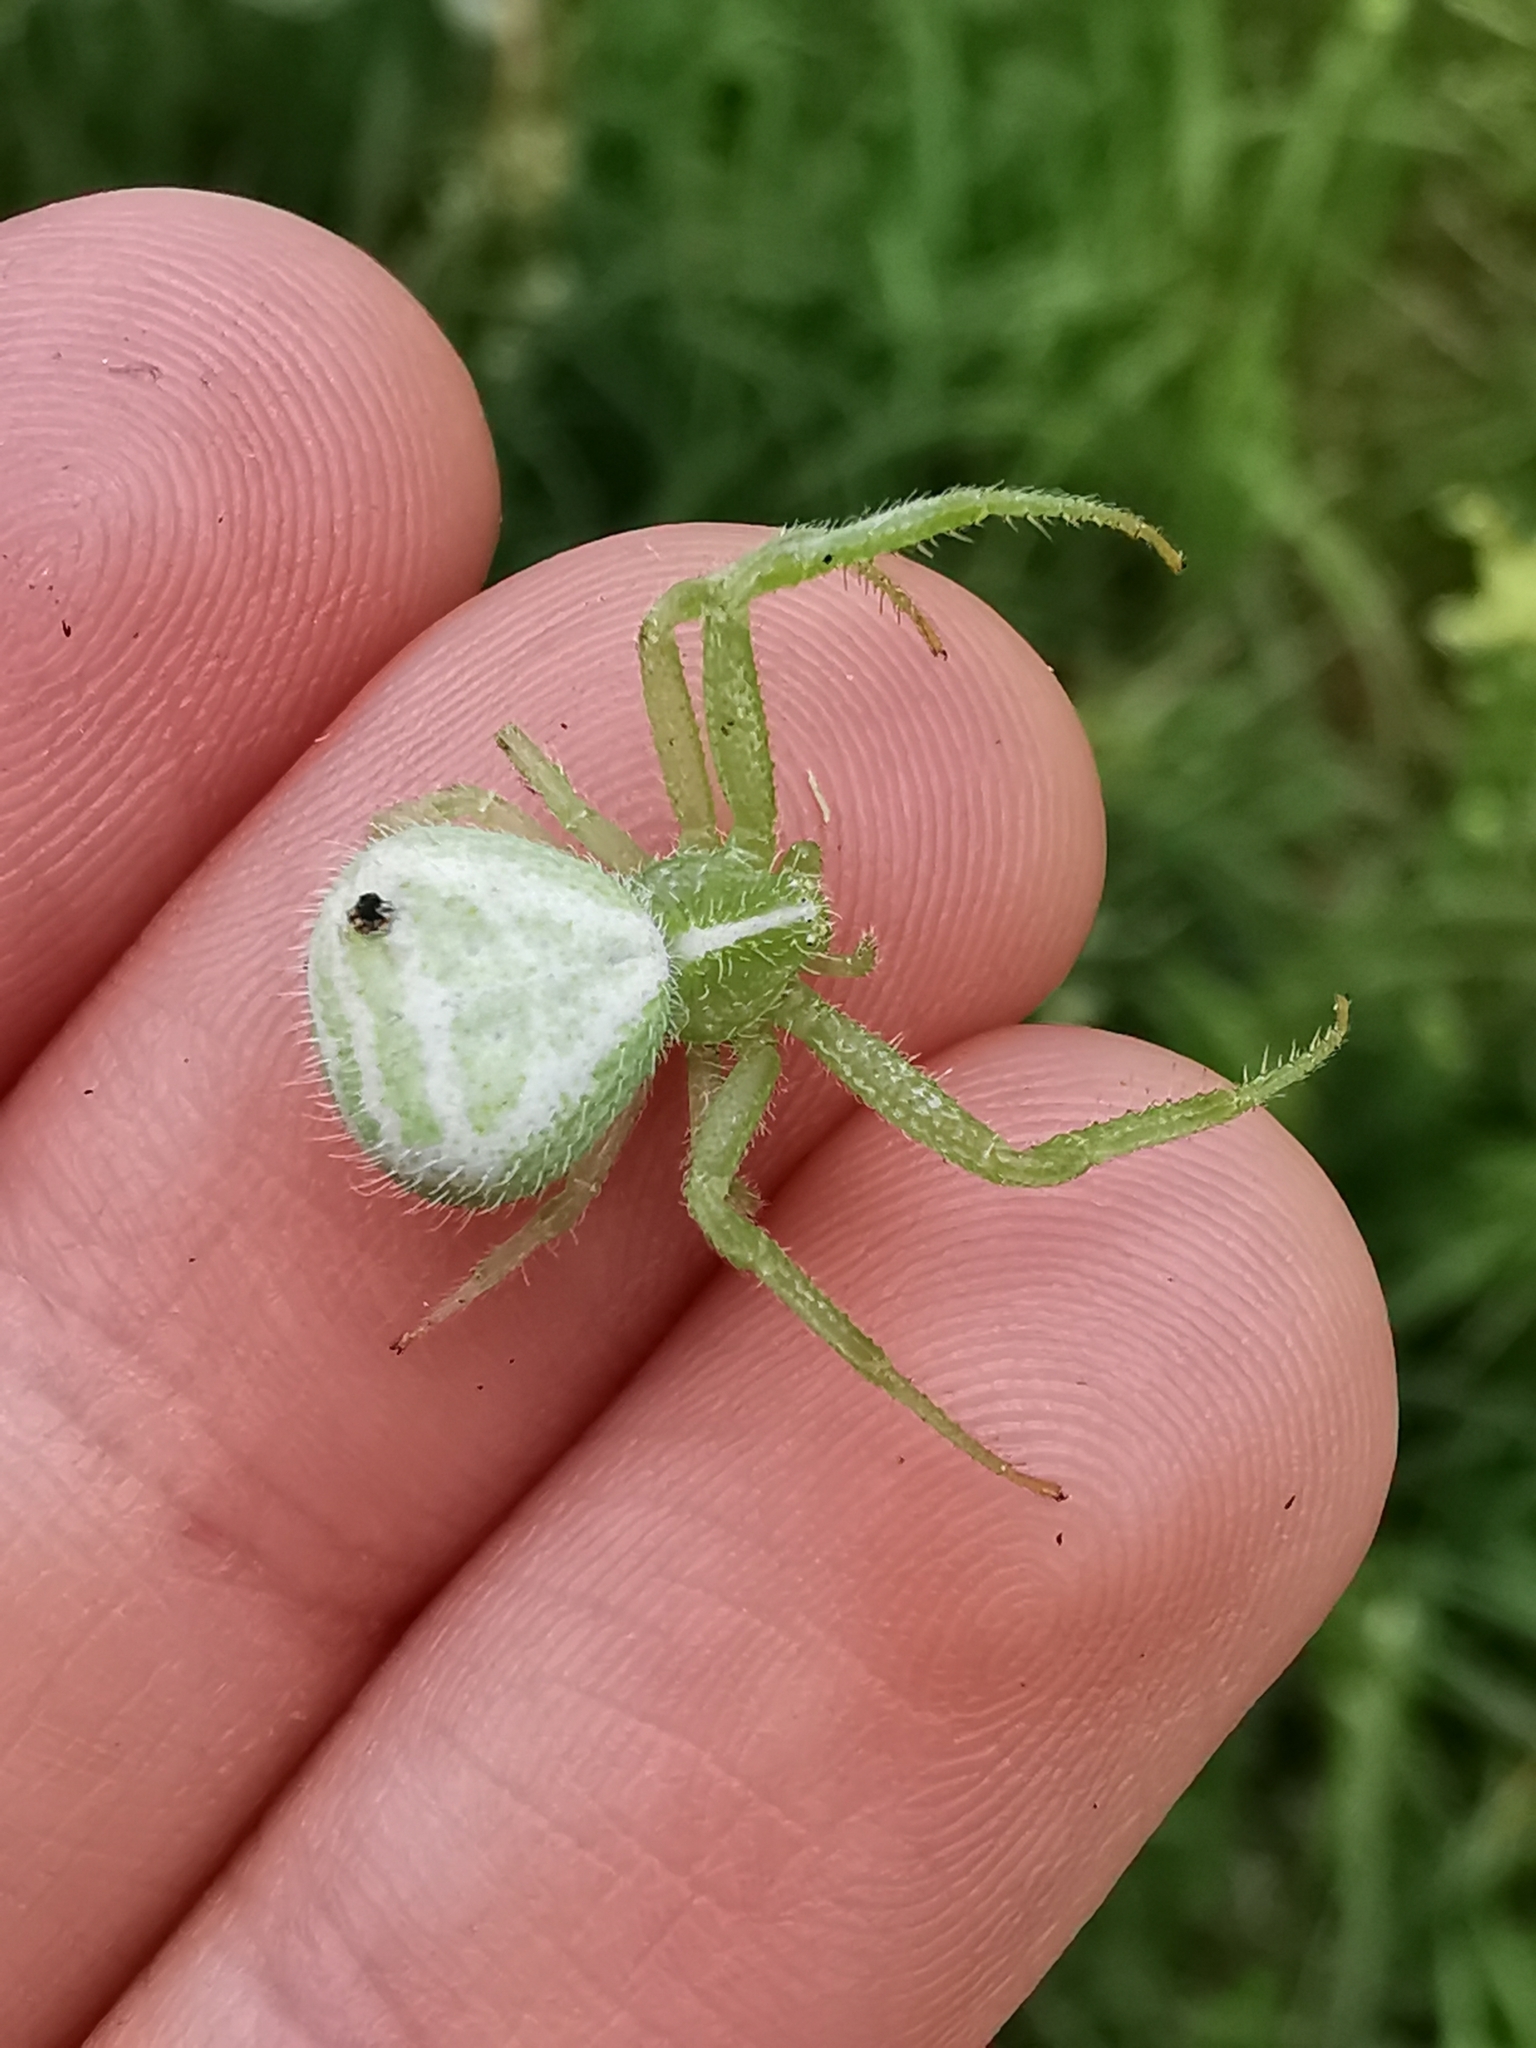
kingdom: Animalia
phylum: Arthropoda
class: Arachnida
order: Araneae
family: Thomisidae
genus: Heriaeus
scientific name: Heriaeus
